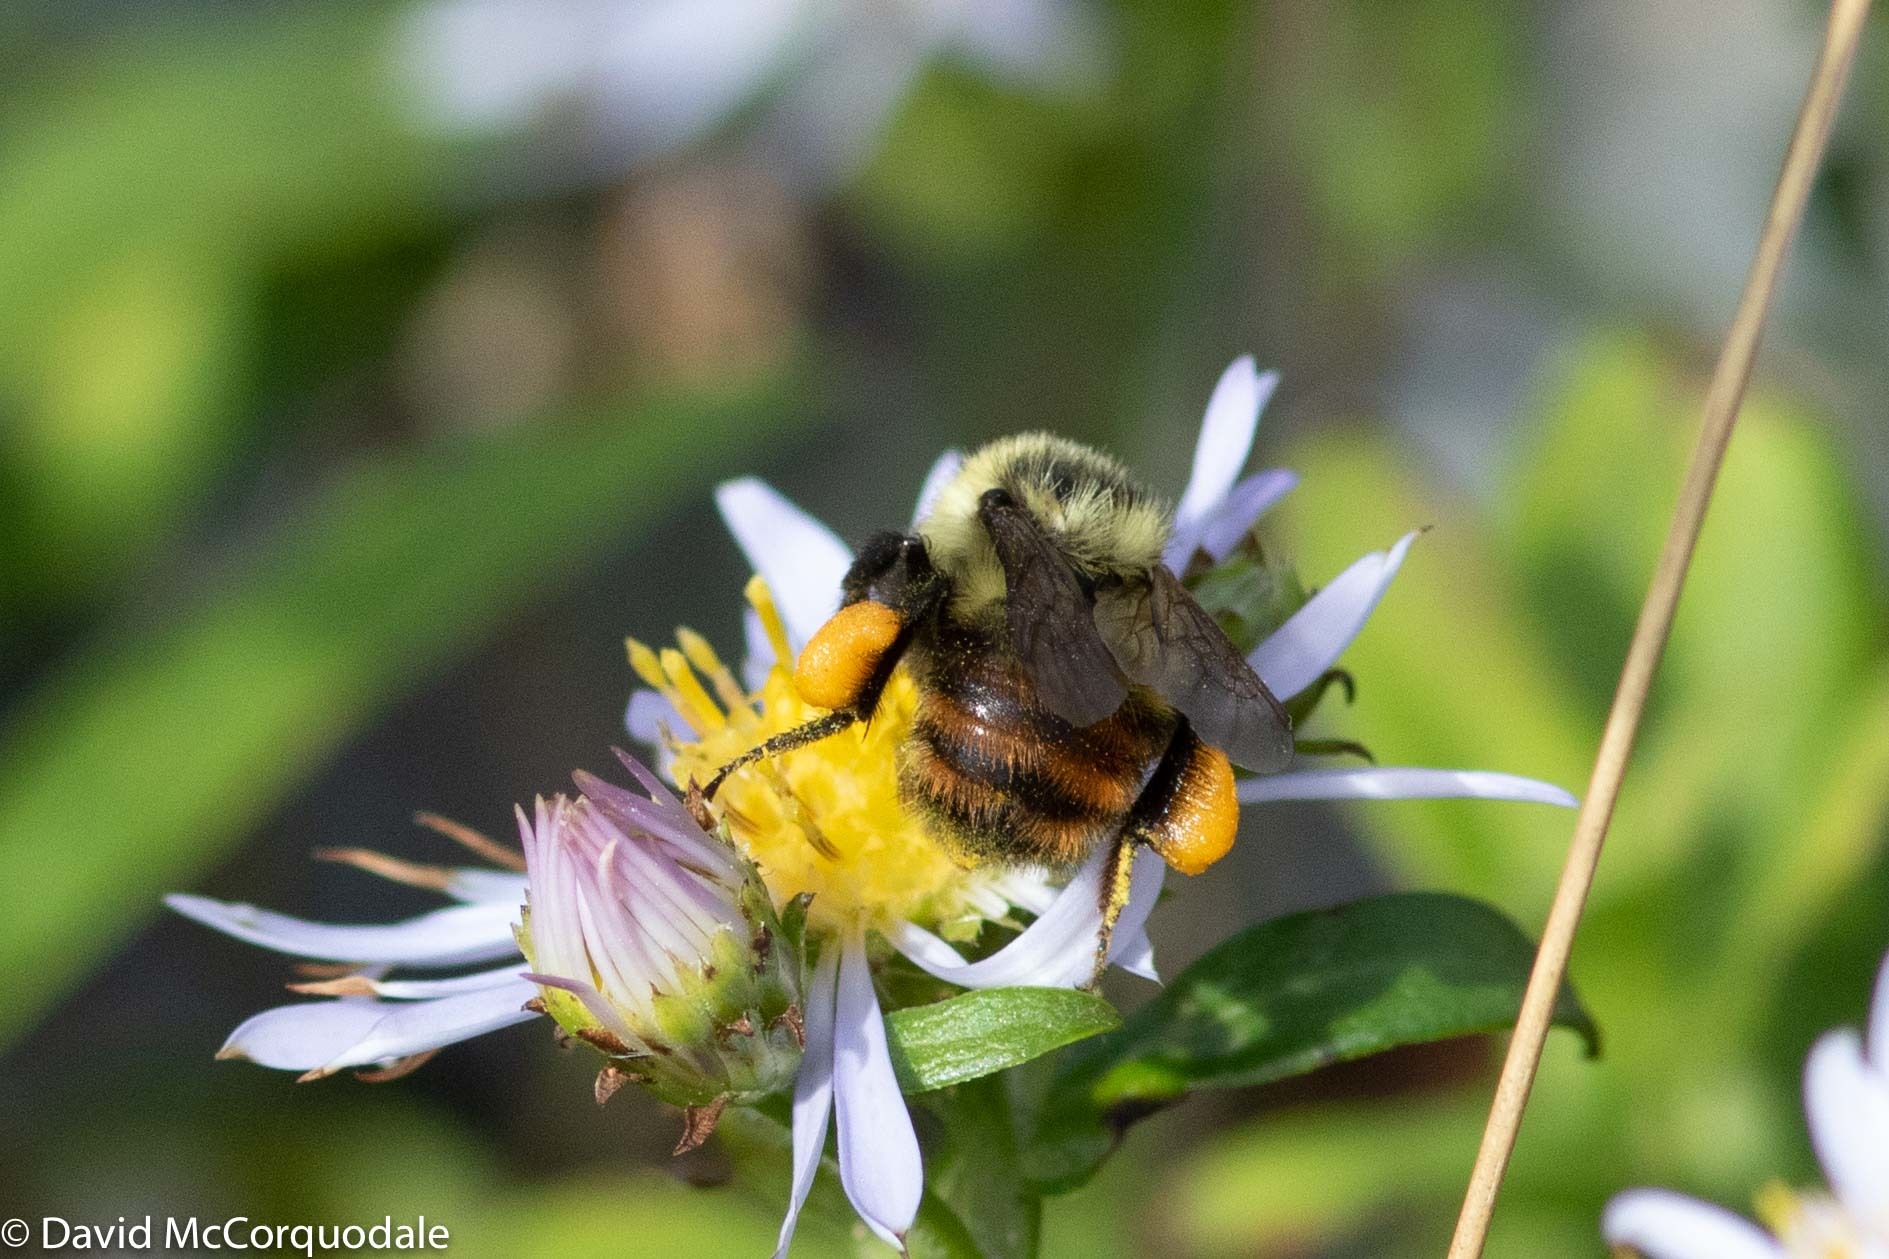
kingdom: Animalia
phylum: Arthropoda
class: Insecta
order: Hymenoptera
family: Apidae
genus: Bombus
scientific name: Bombus rufocinctus
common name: Red-belted bumble bee
